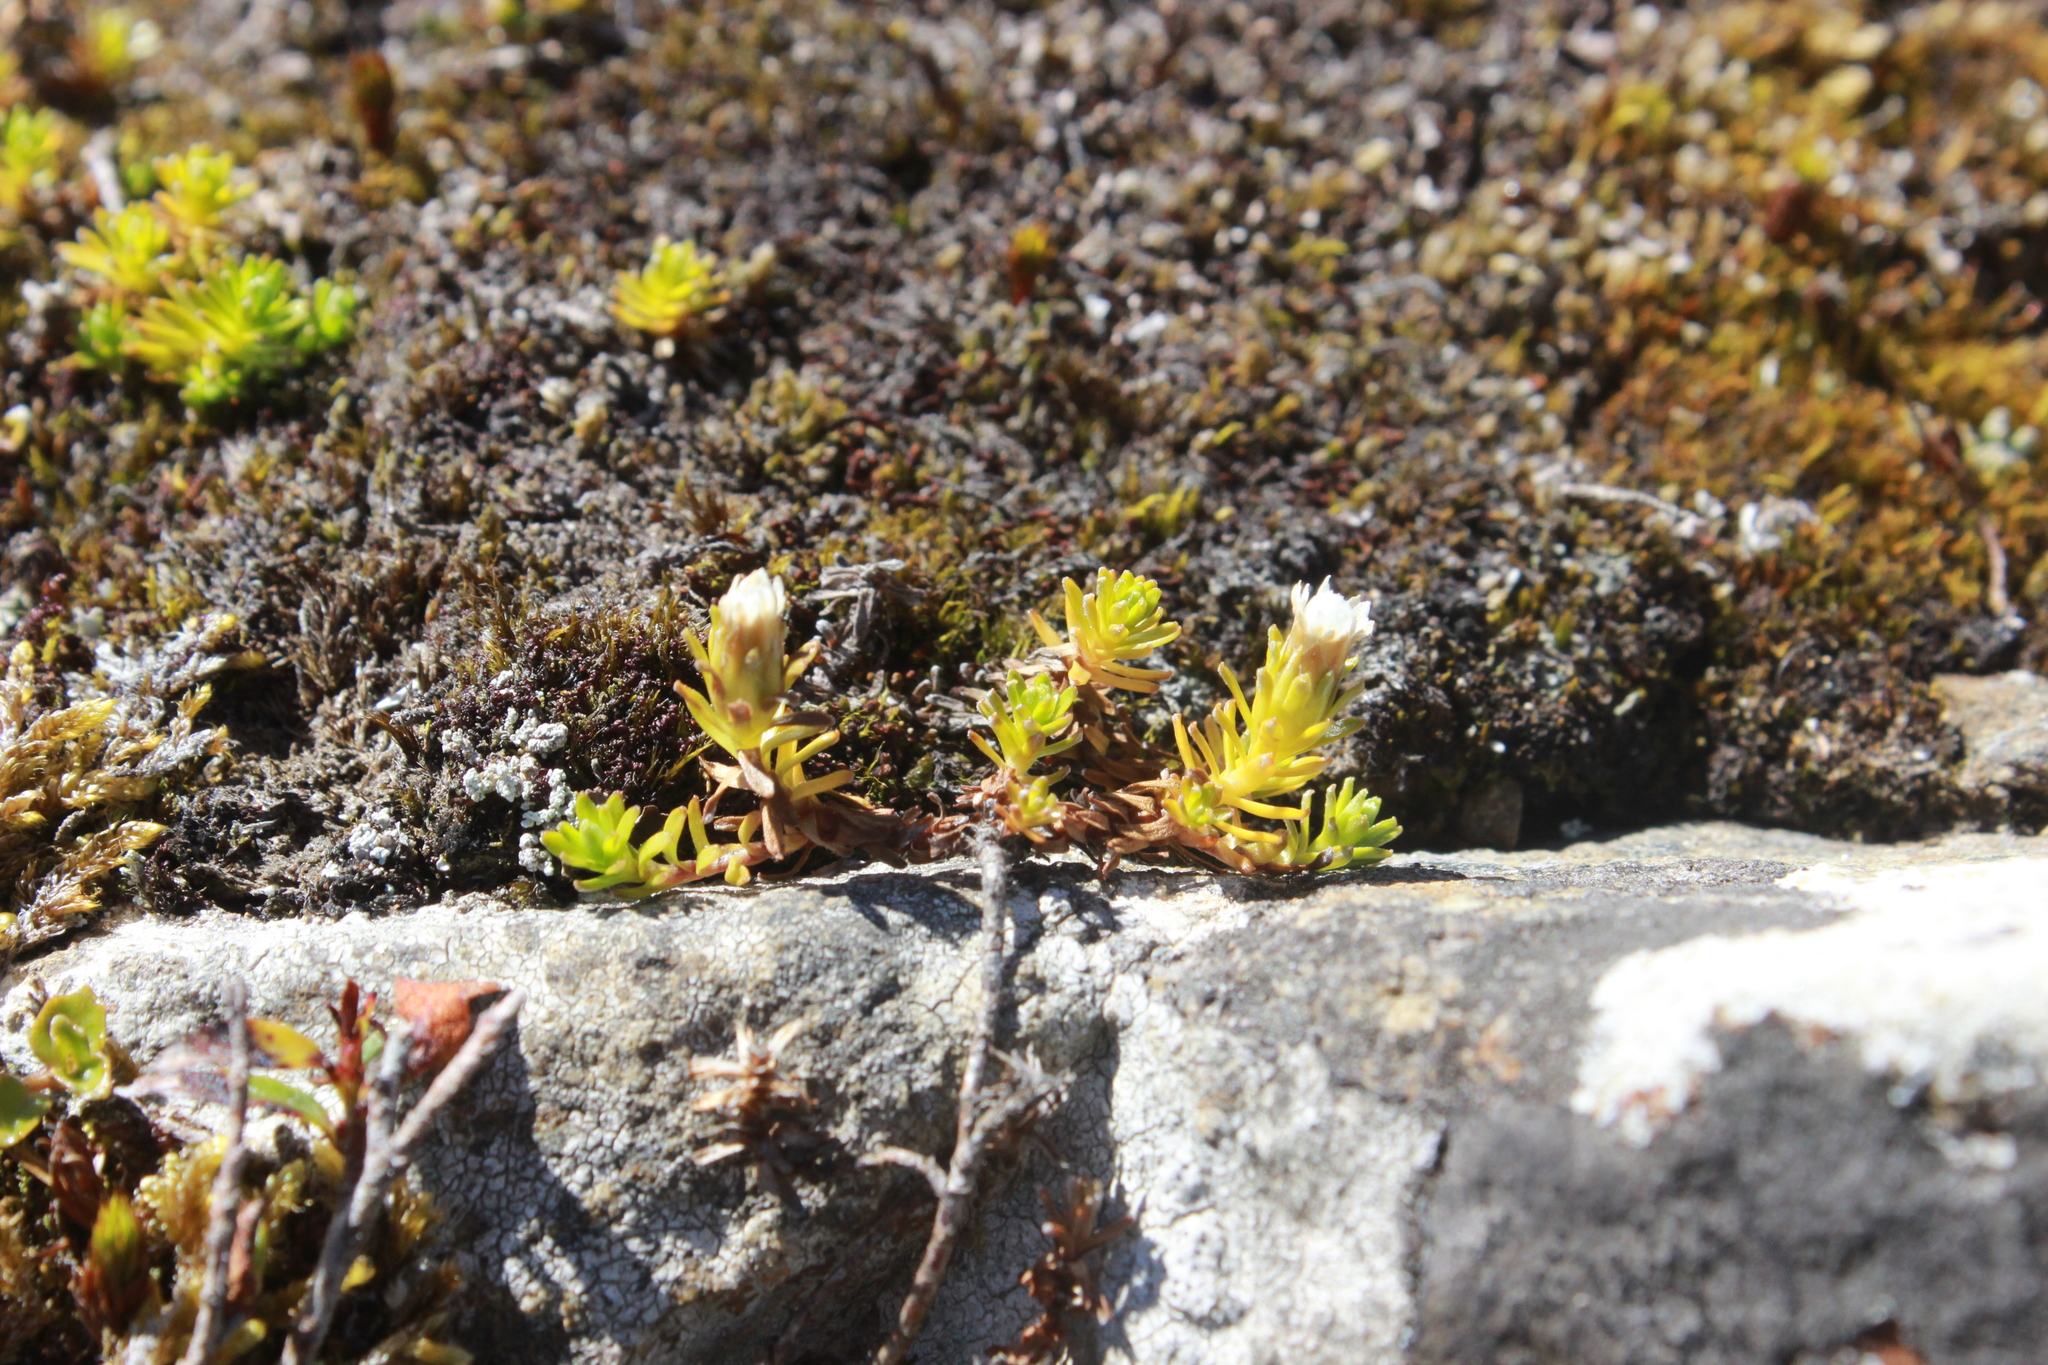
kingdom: Plantae
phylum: Tracheophyta
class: Magnoliopsida
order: Asterales
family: Asteraceae
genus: Raoulia
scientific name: Raoulia glabra
